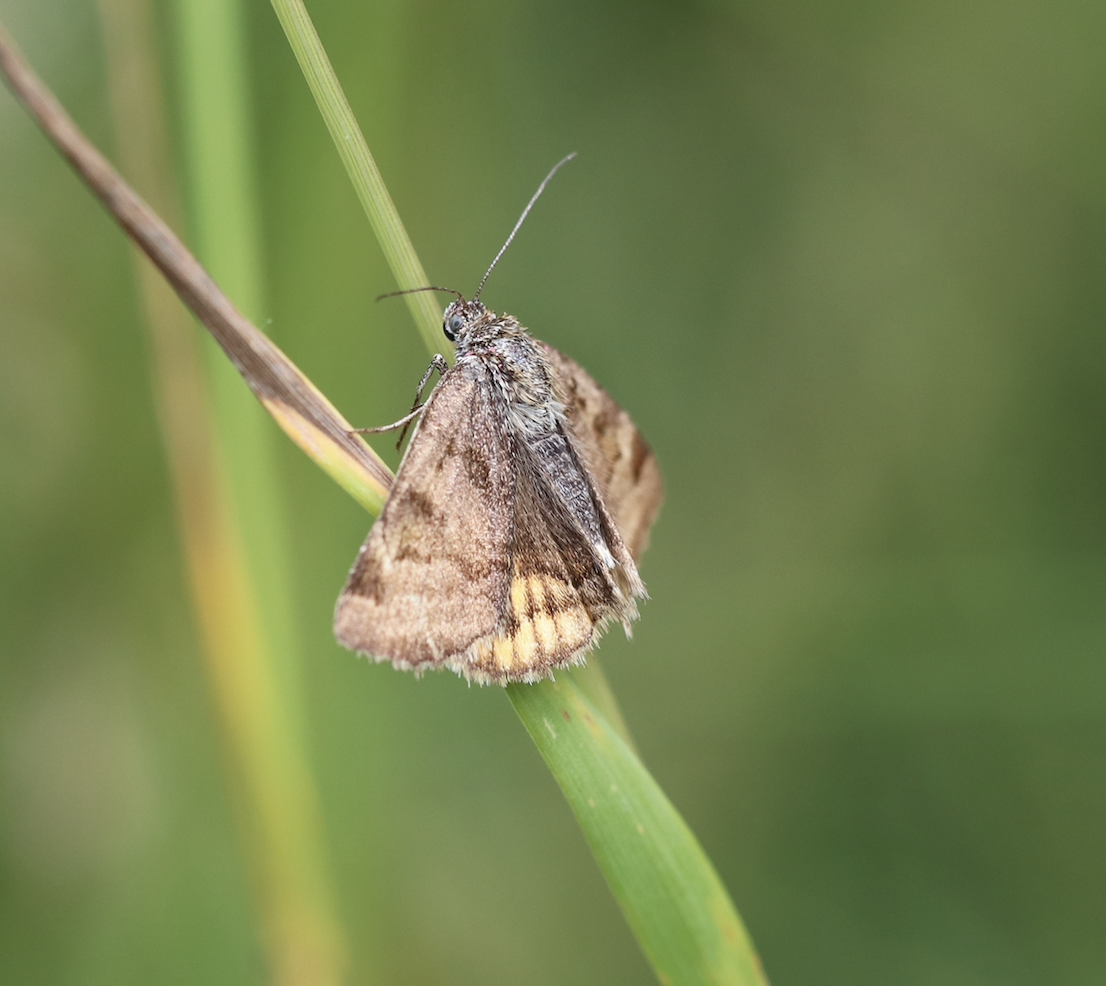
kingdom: Animalia
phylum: Arthropoda
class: Insecta
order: Lepidoptera
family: Erebidae
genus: Euclidia
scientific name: Euclidia glyphica
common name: Burnet companion
